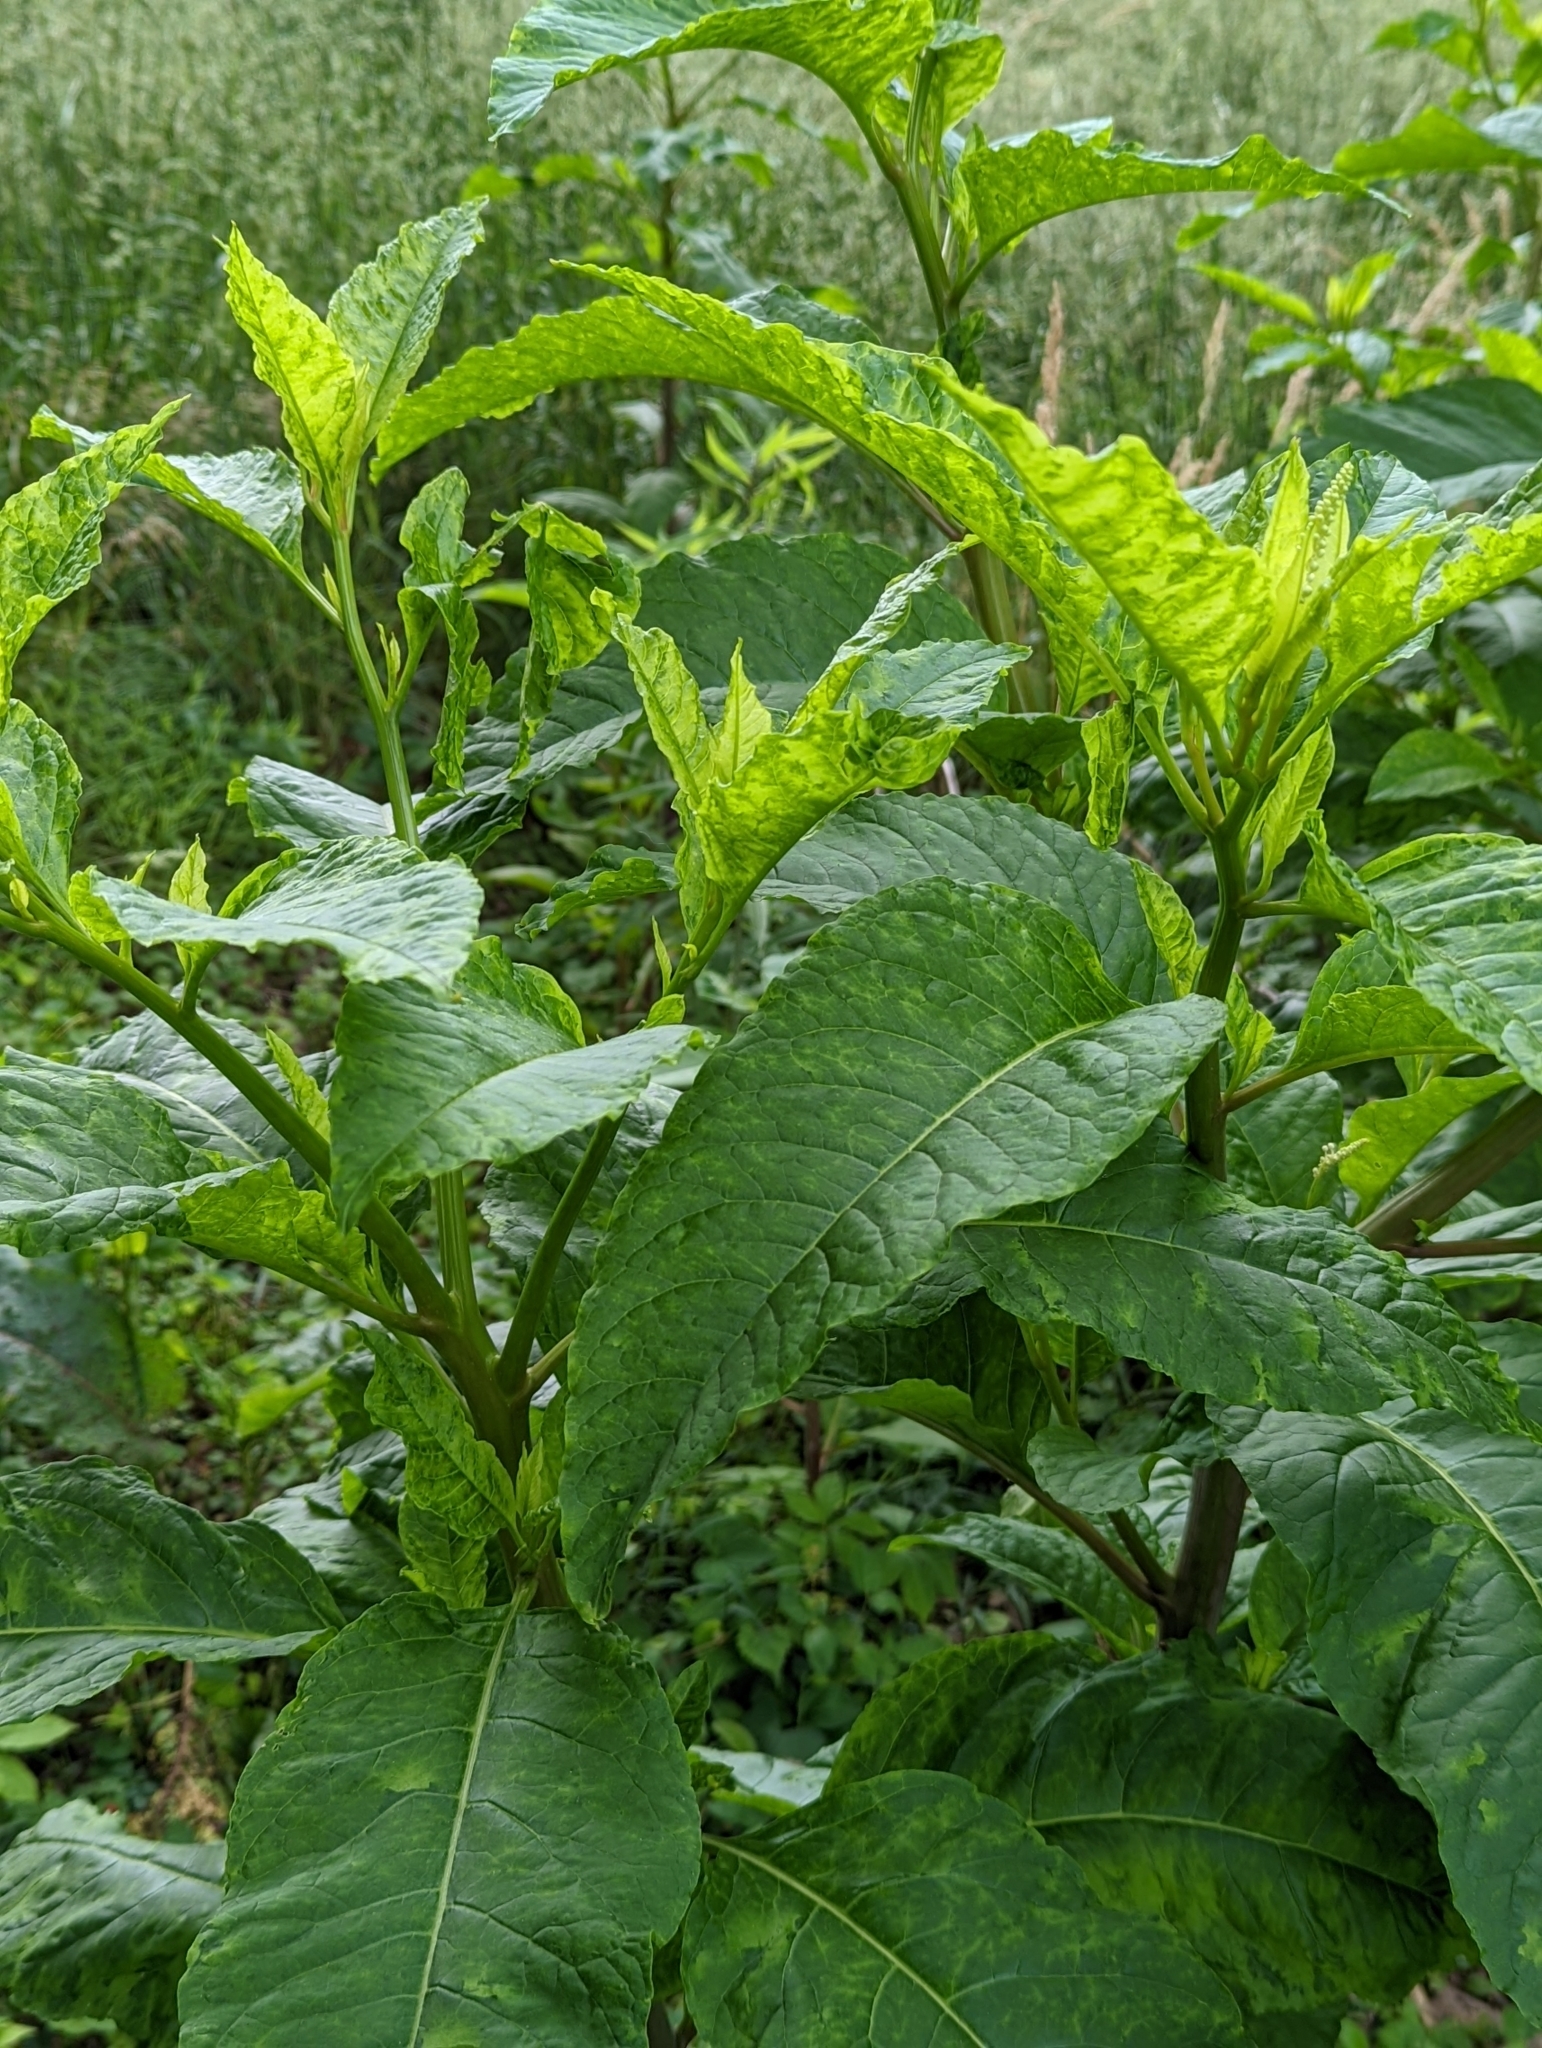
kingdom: Viruses
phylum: Pisuviricota
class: Stelpaviricetes
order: Patatavirales
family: Potyviridae
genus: Potyvirus
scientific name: Potyvirus Pokeweed mosaic virus
